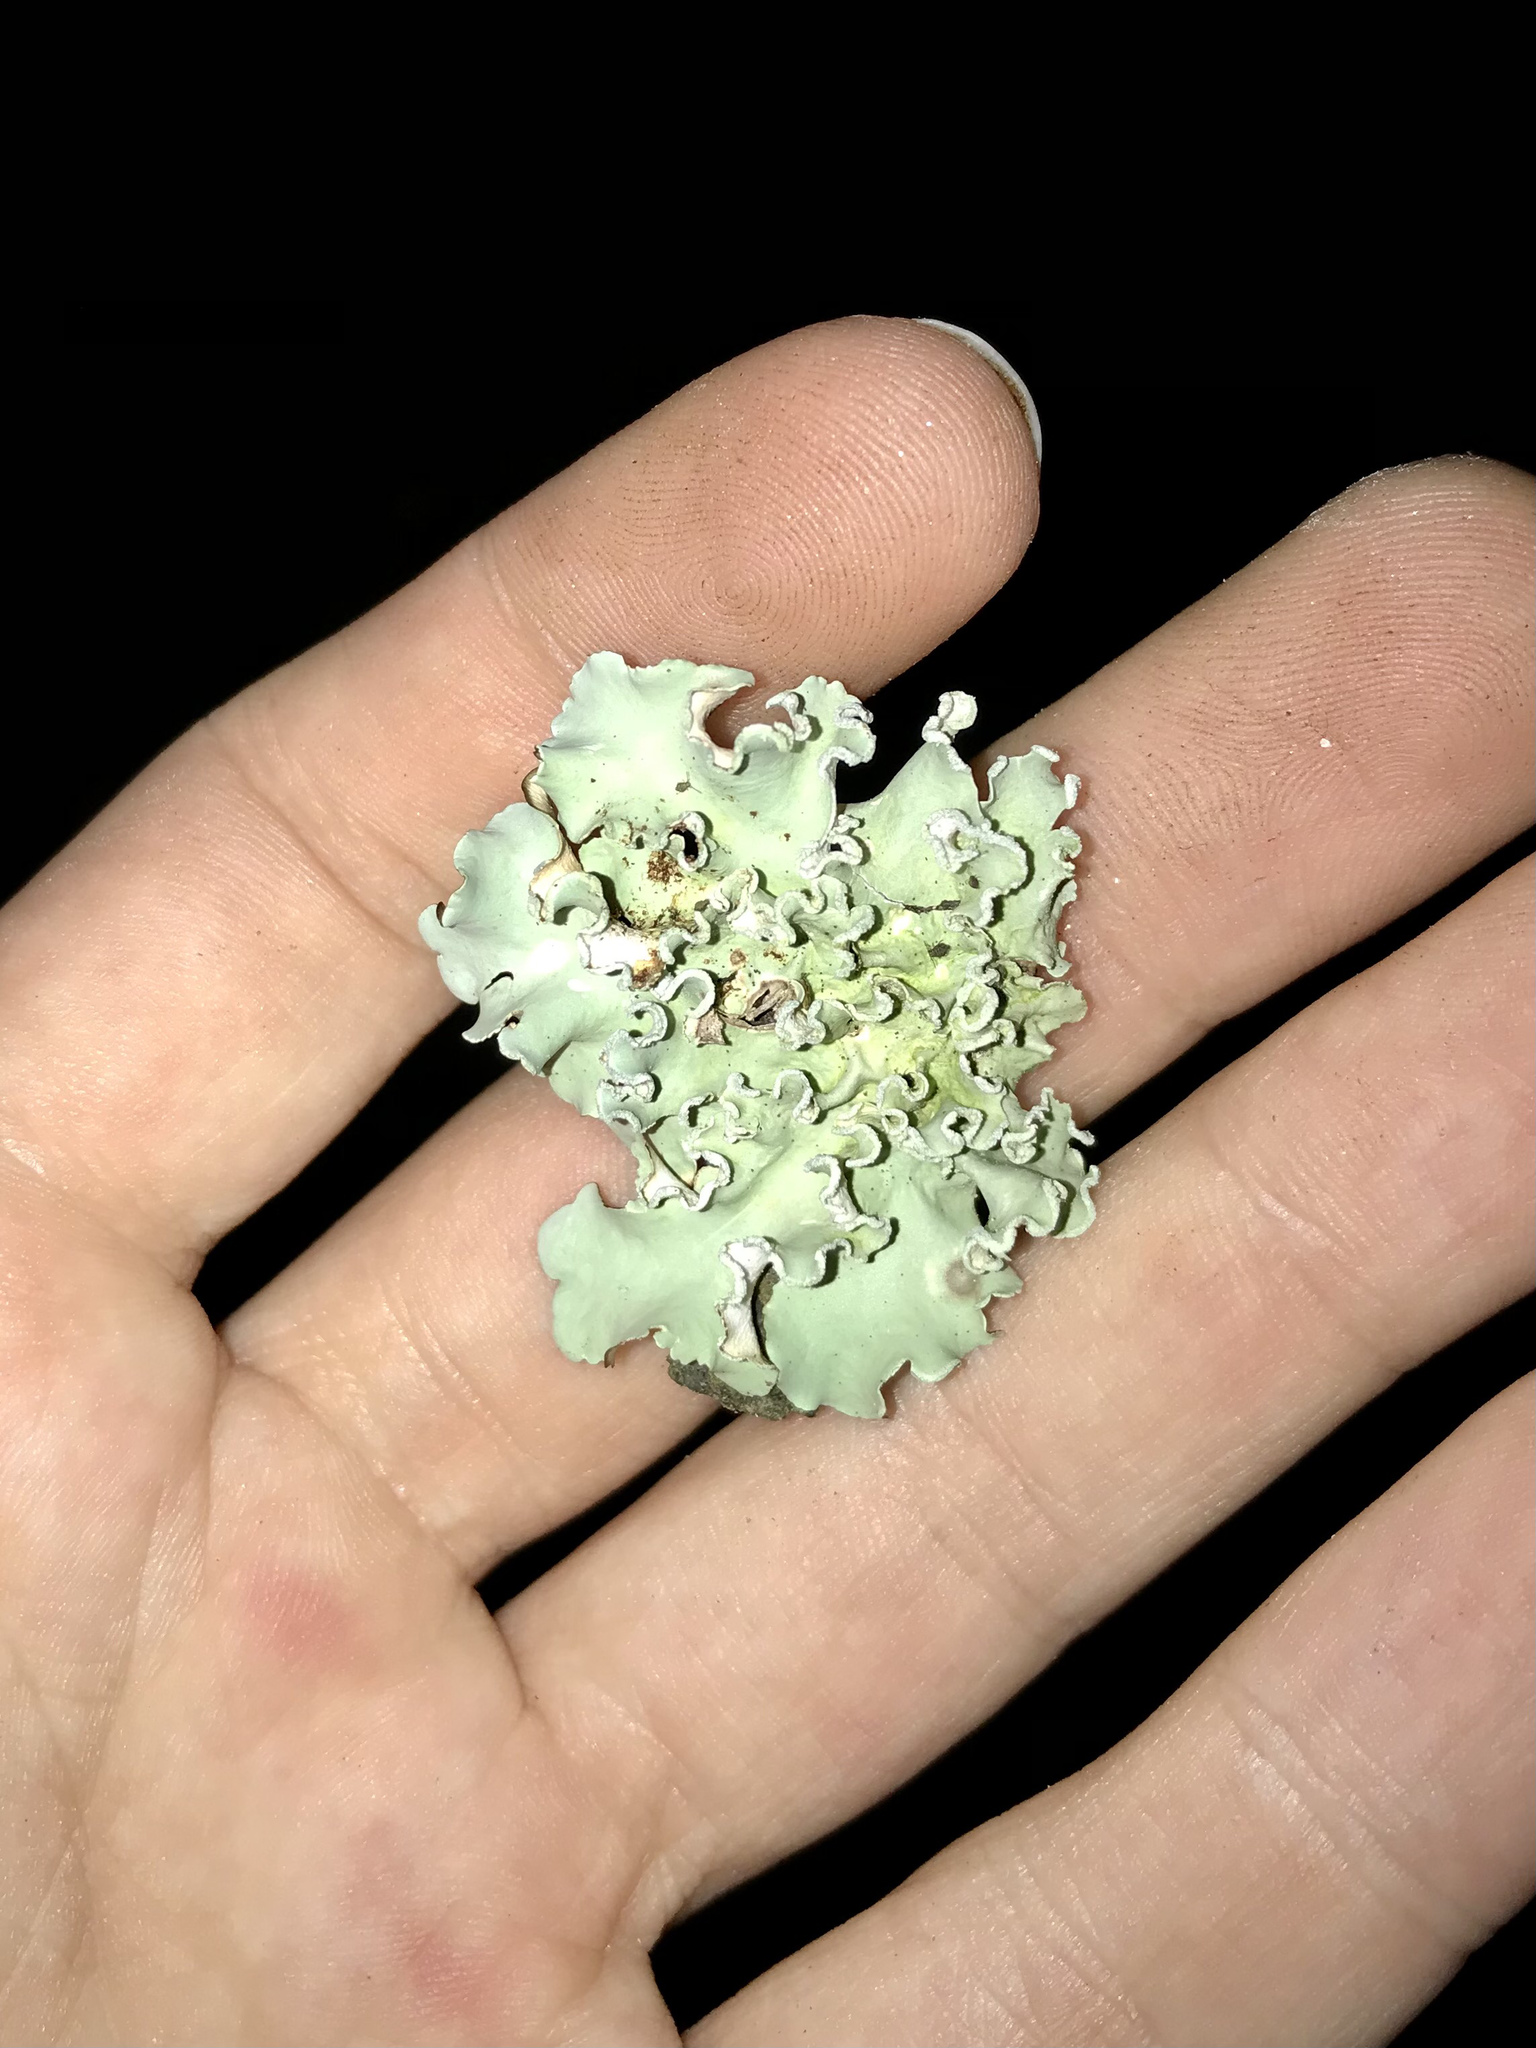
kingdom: Fungi
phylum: Ascomycota
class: Lecanoromycetes
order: Lecanorales
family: Parmeliaceae
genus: Parmotrema
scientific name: Parmotrema austrosinense
